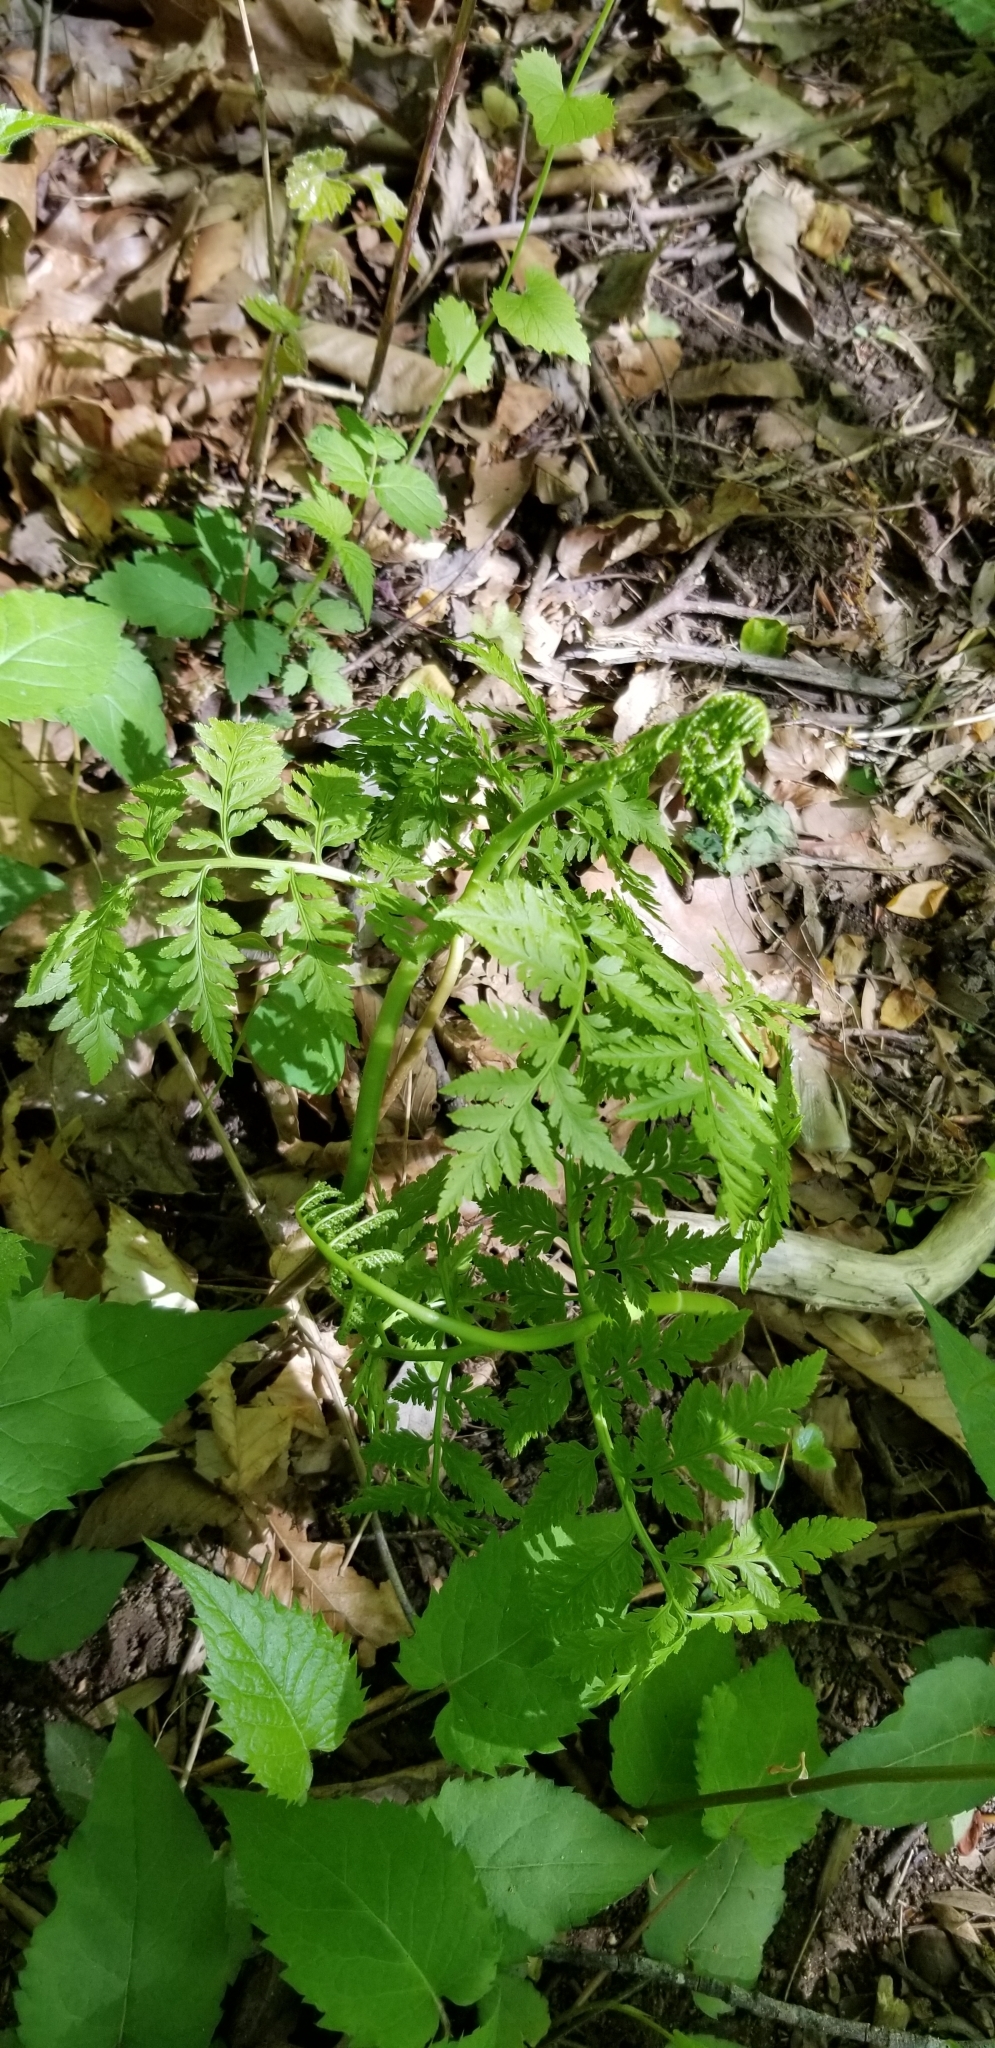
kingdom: Plantae
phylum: Tracheophyta
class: Polypodiopsida
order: Ophioglossales
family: Ophioglossaceae
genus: Botrypus
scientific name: Botrypus virginianus
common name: Common grapefern
